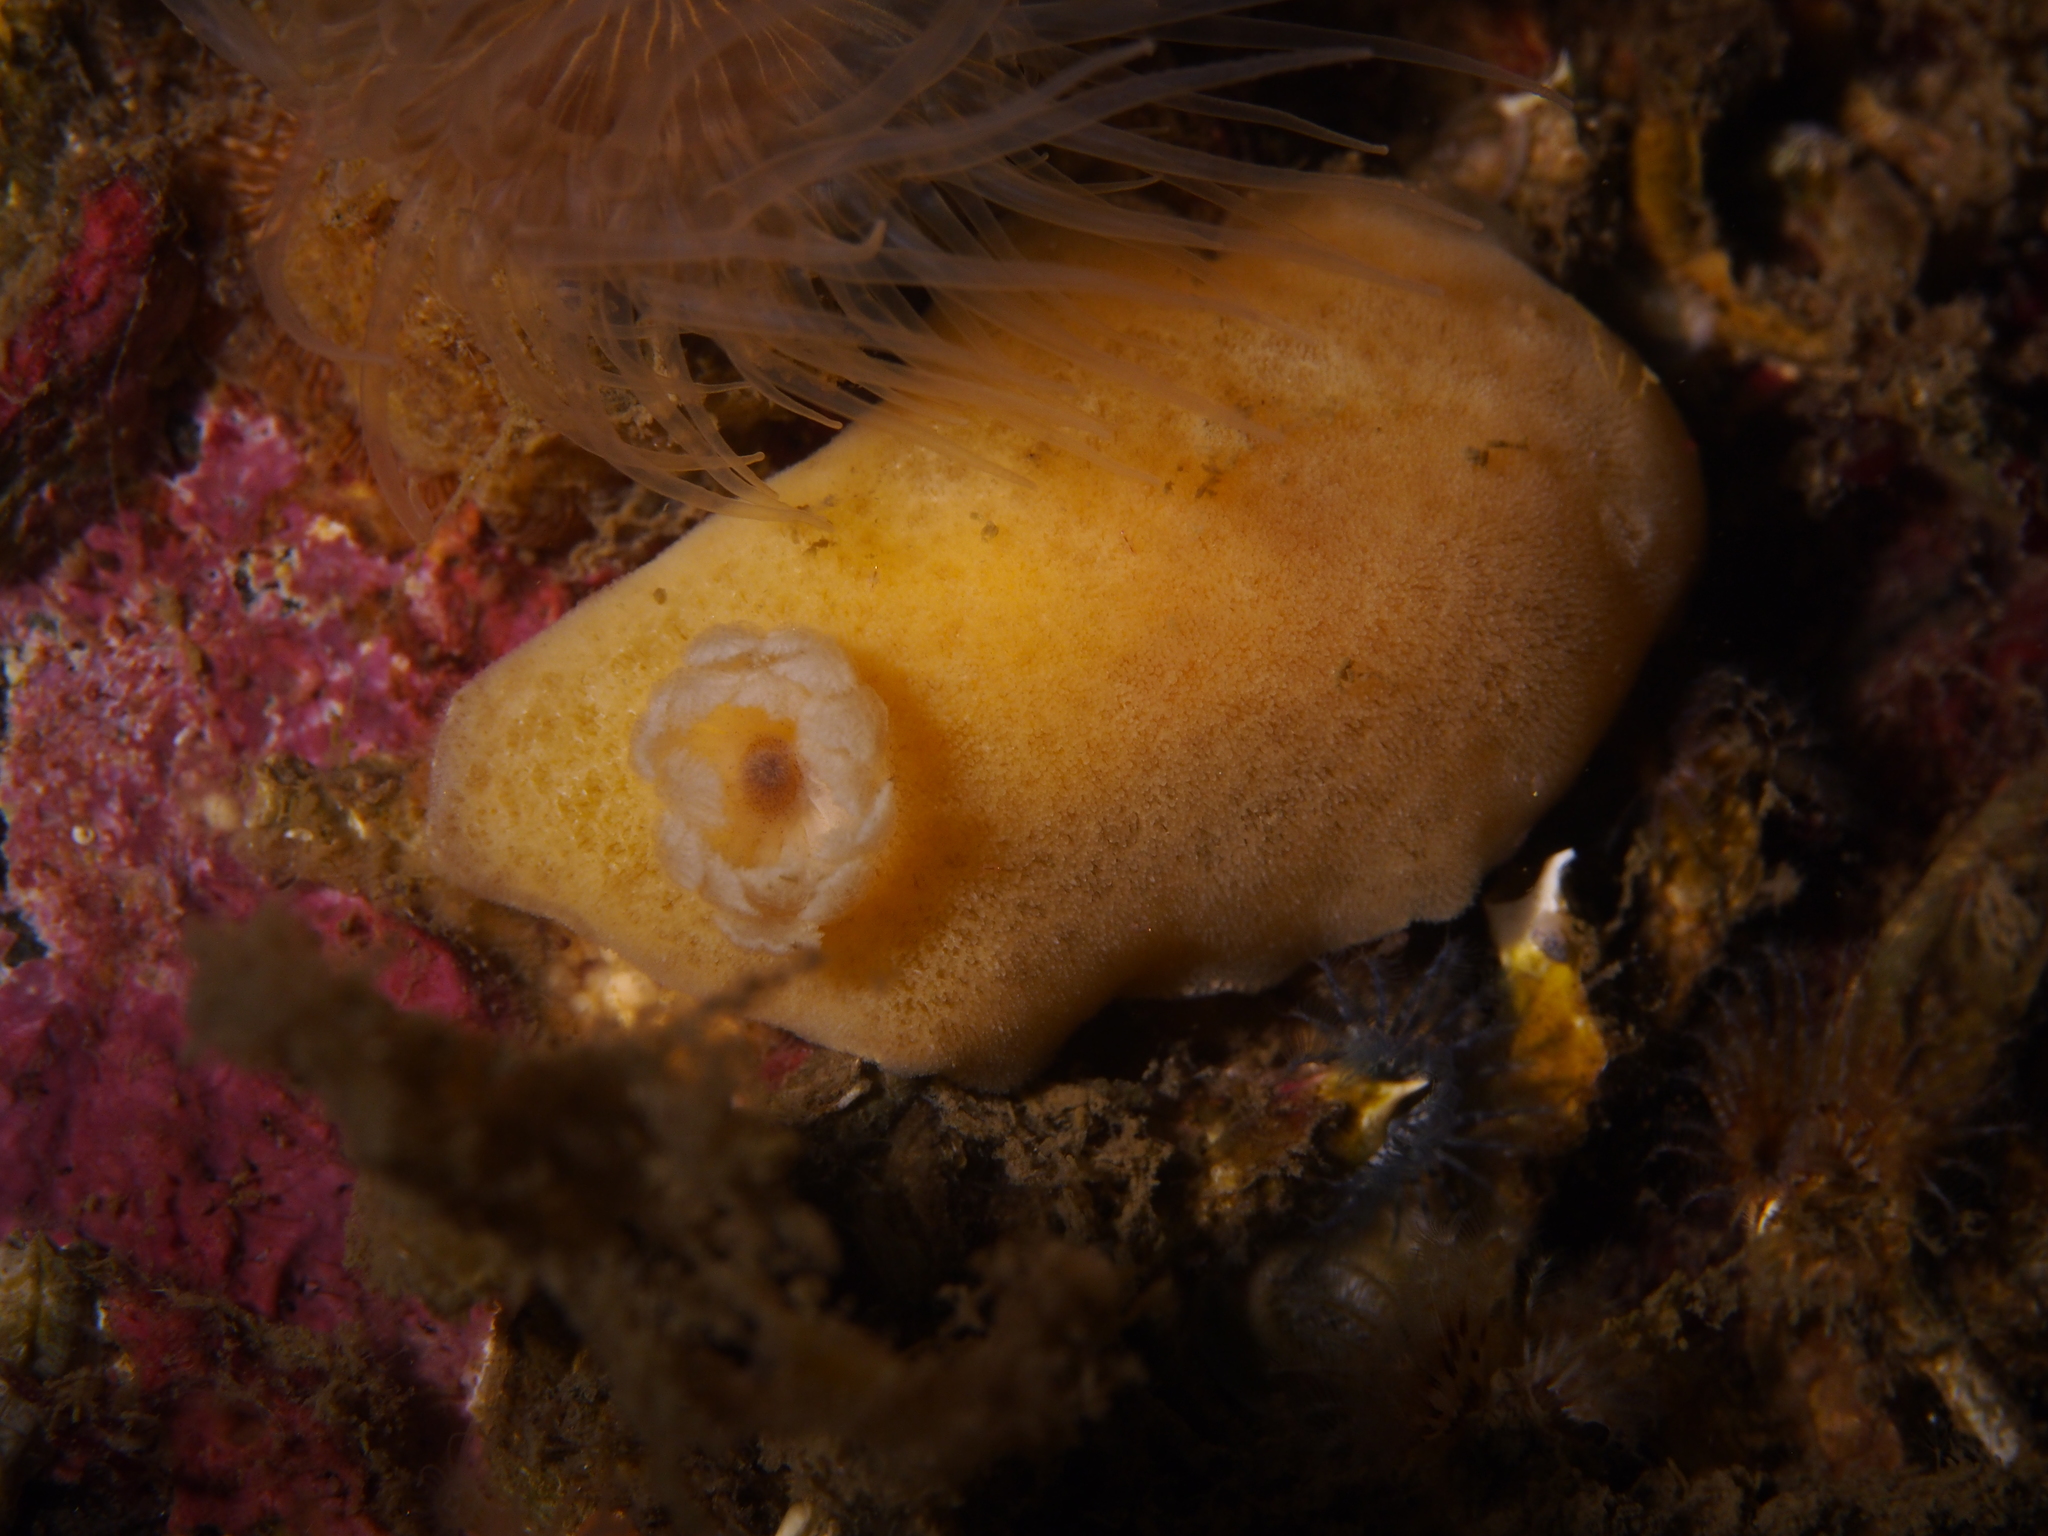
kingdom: Animalia
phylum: Mollusca
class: Gastropoda
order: Nudibranchia
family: Discodorididae
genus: Jorunna
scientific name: Jorunna tomentosa
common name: Grey sea slug
